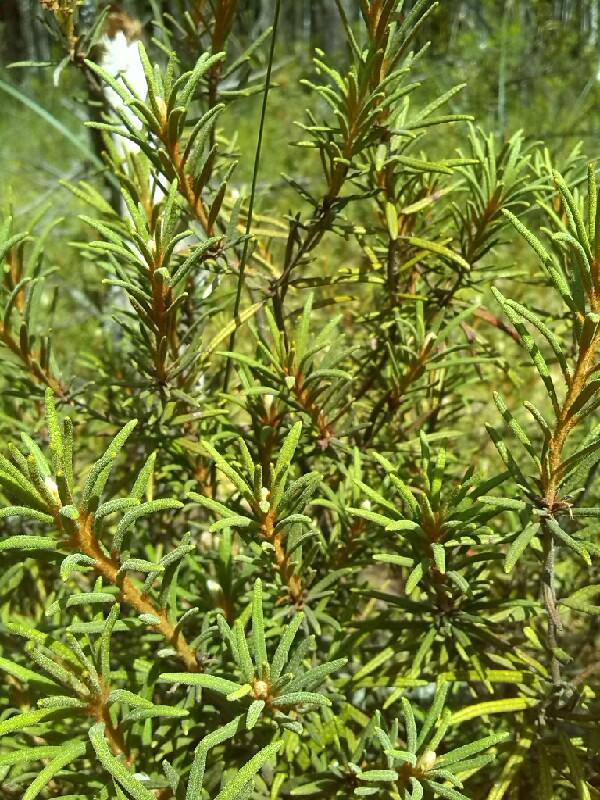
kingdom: Plantae
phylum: Tracheophyta
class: Magnoliopsida
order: Ericales
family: Ericaceae
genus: Rhododendron
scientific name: Rhododendron tomentosum
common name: Marsh labrador tea
